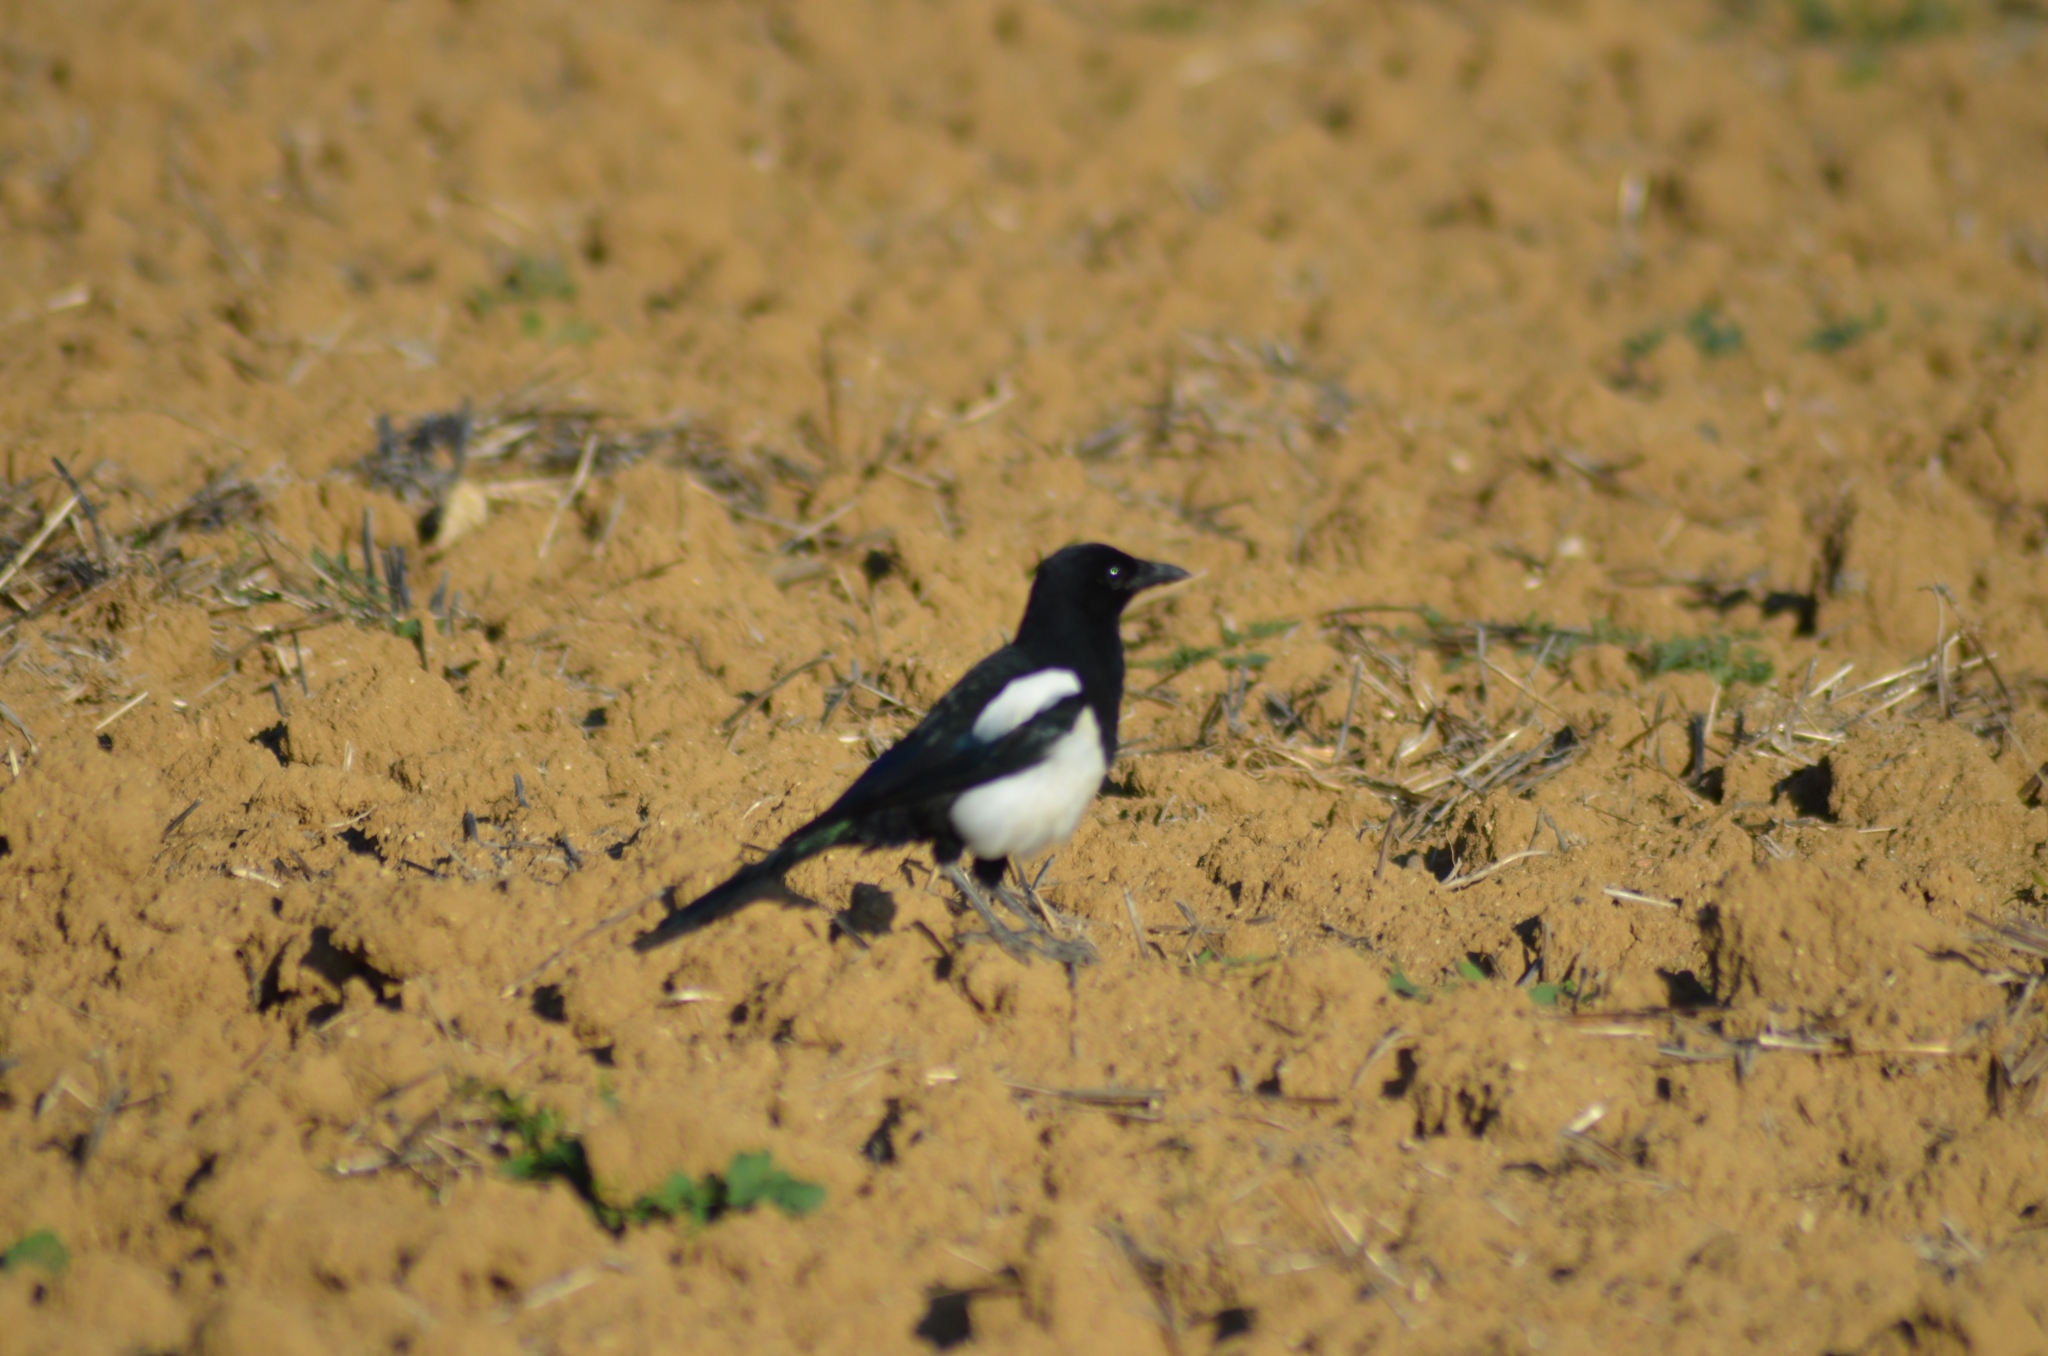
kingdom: Animalia
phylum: Chordata
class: Aves
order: Passeriformes
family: Corvidae
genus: Pica
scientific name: Pica pica
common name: Eurasian magpie
